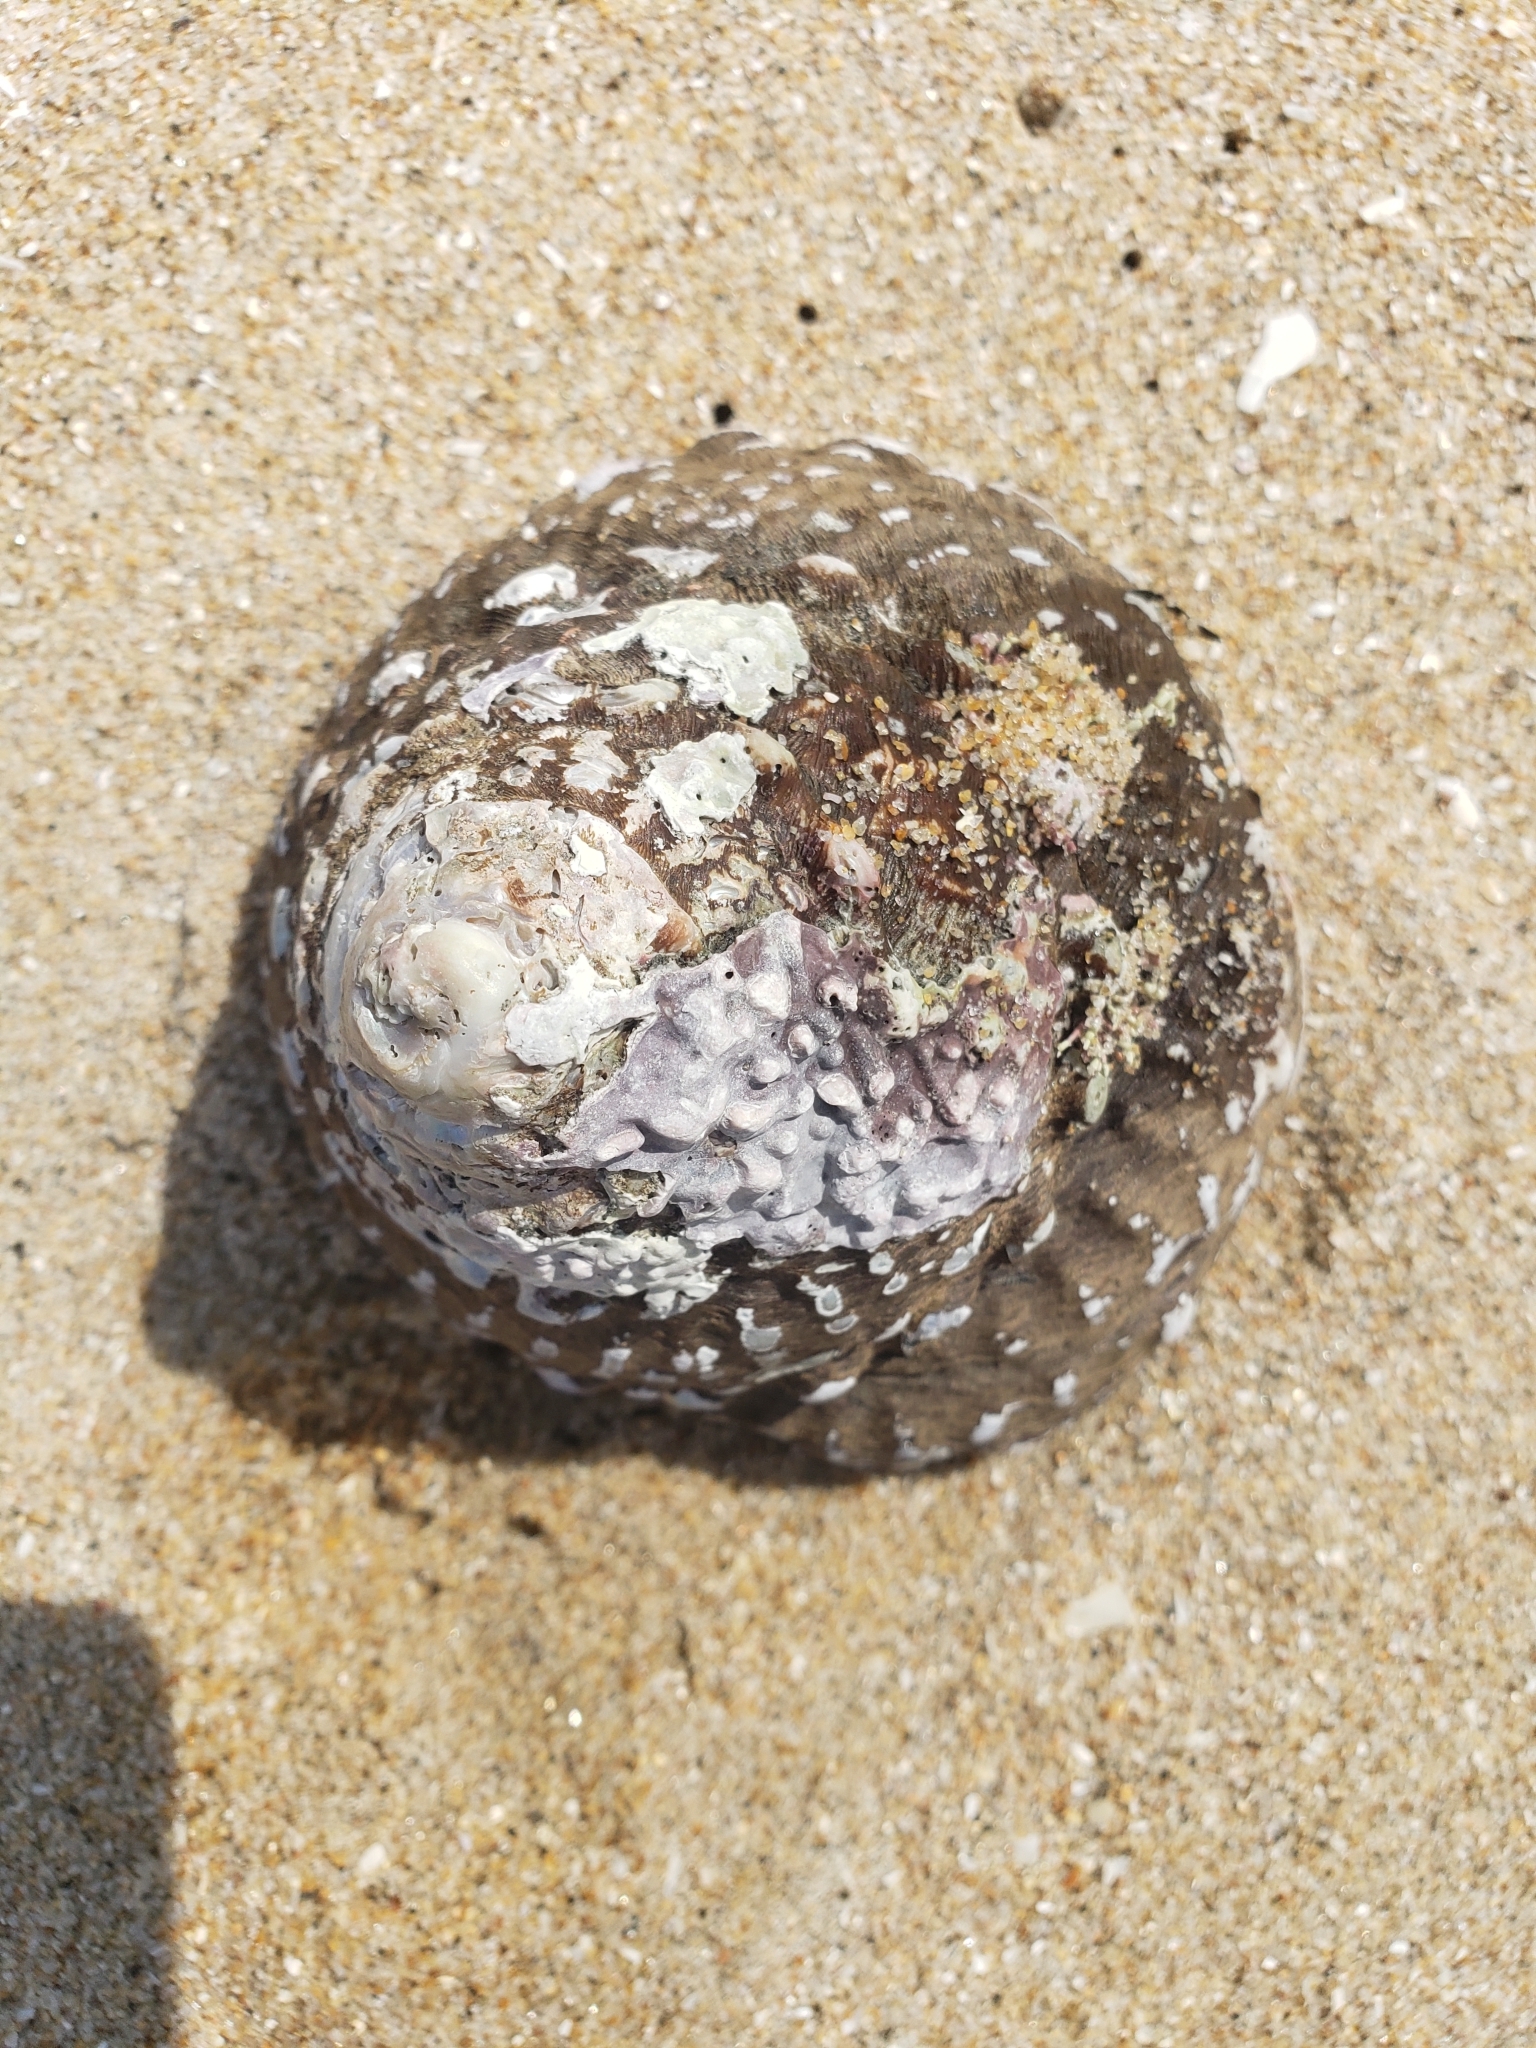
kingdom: Animalia
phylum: Mollusca
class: Gastropoda
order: Trochida
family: Turbinidae
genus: Megastraea
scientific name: Megastraea undosa
